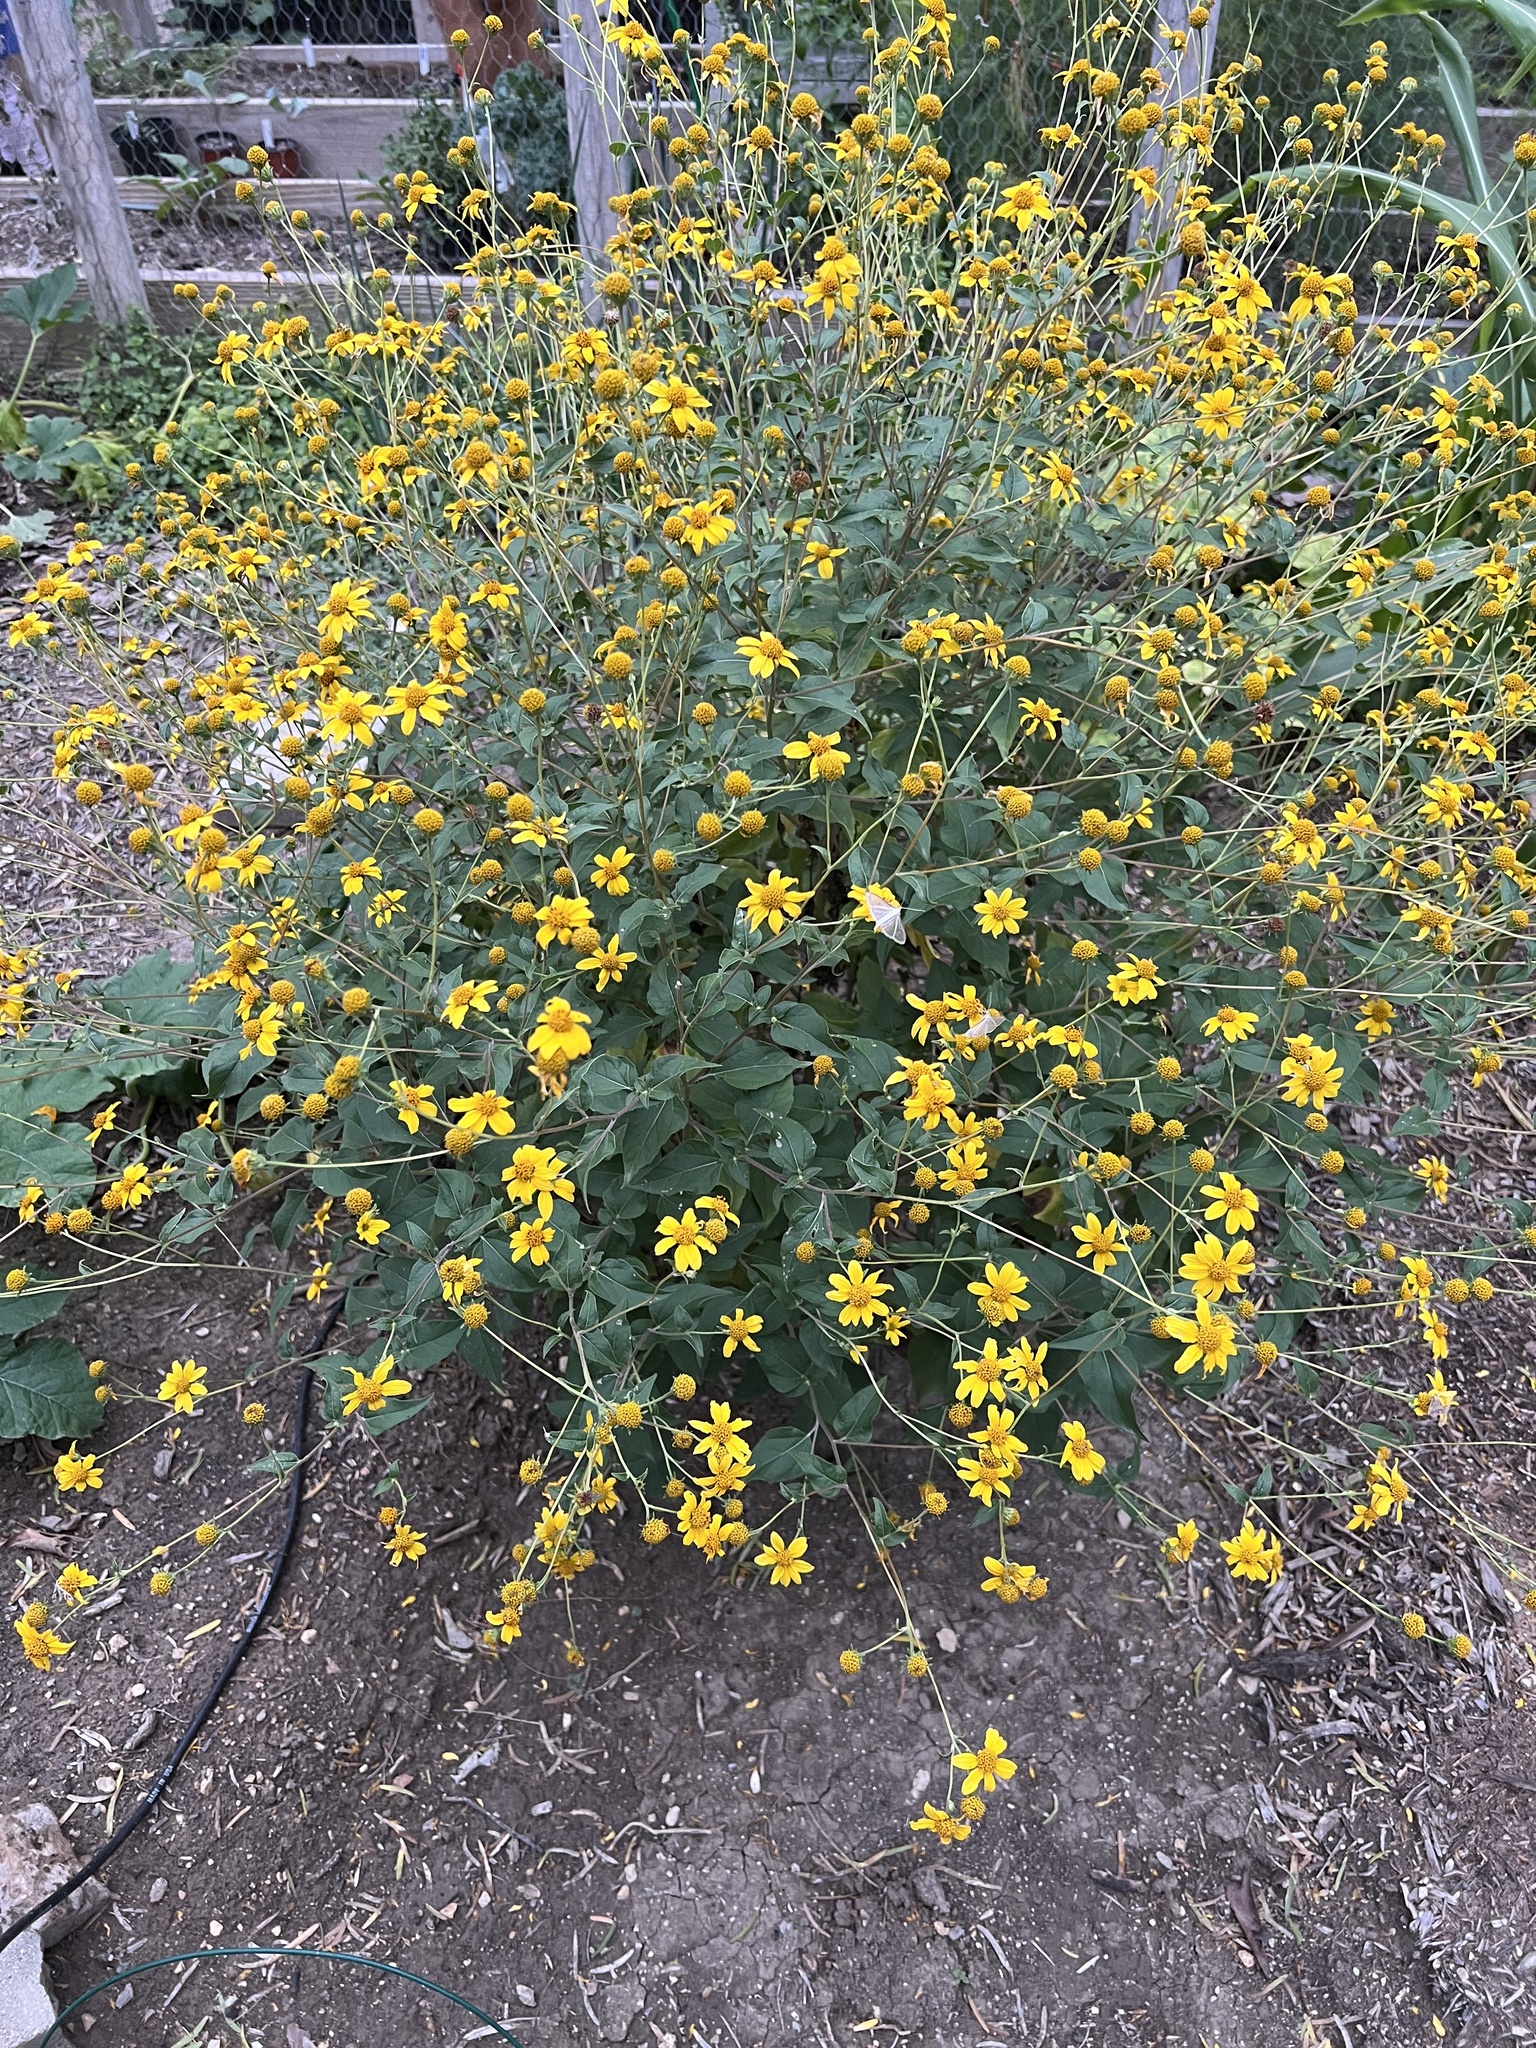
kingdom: Plantae
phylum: Tracheophyta
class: Magnoliopsida
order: Asterales
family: Asteraceae
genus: Viguiera
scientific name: Viguiera dentata
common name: Toothleaf
